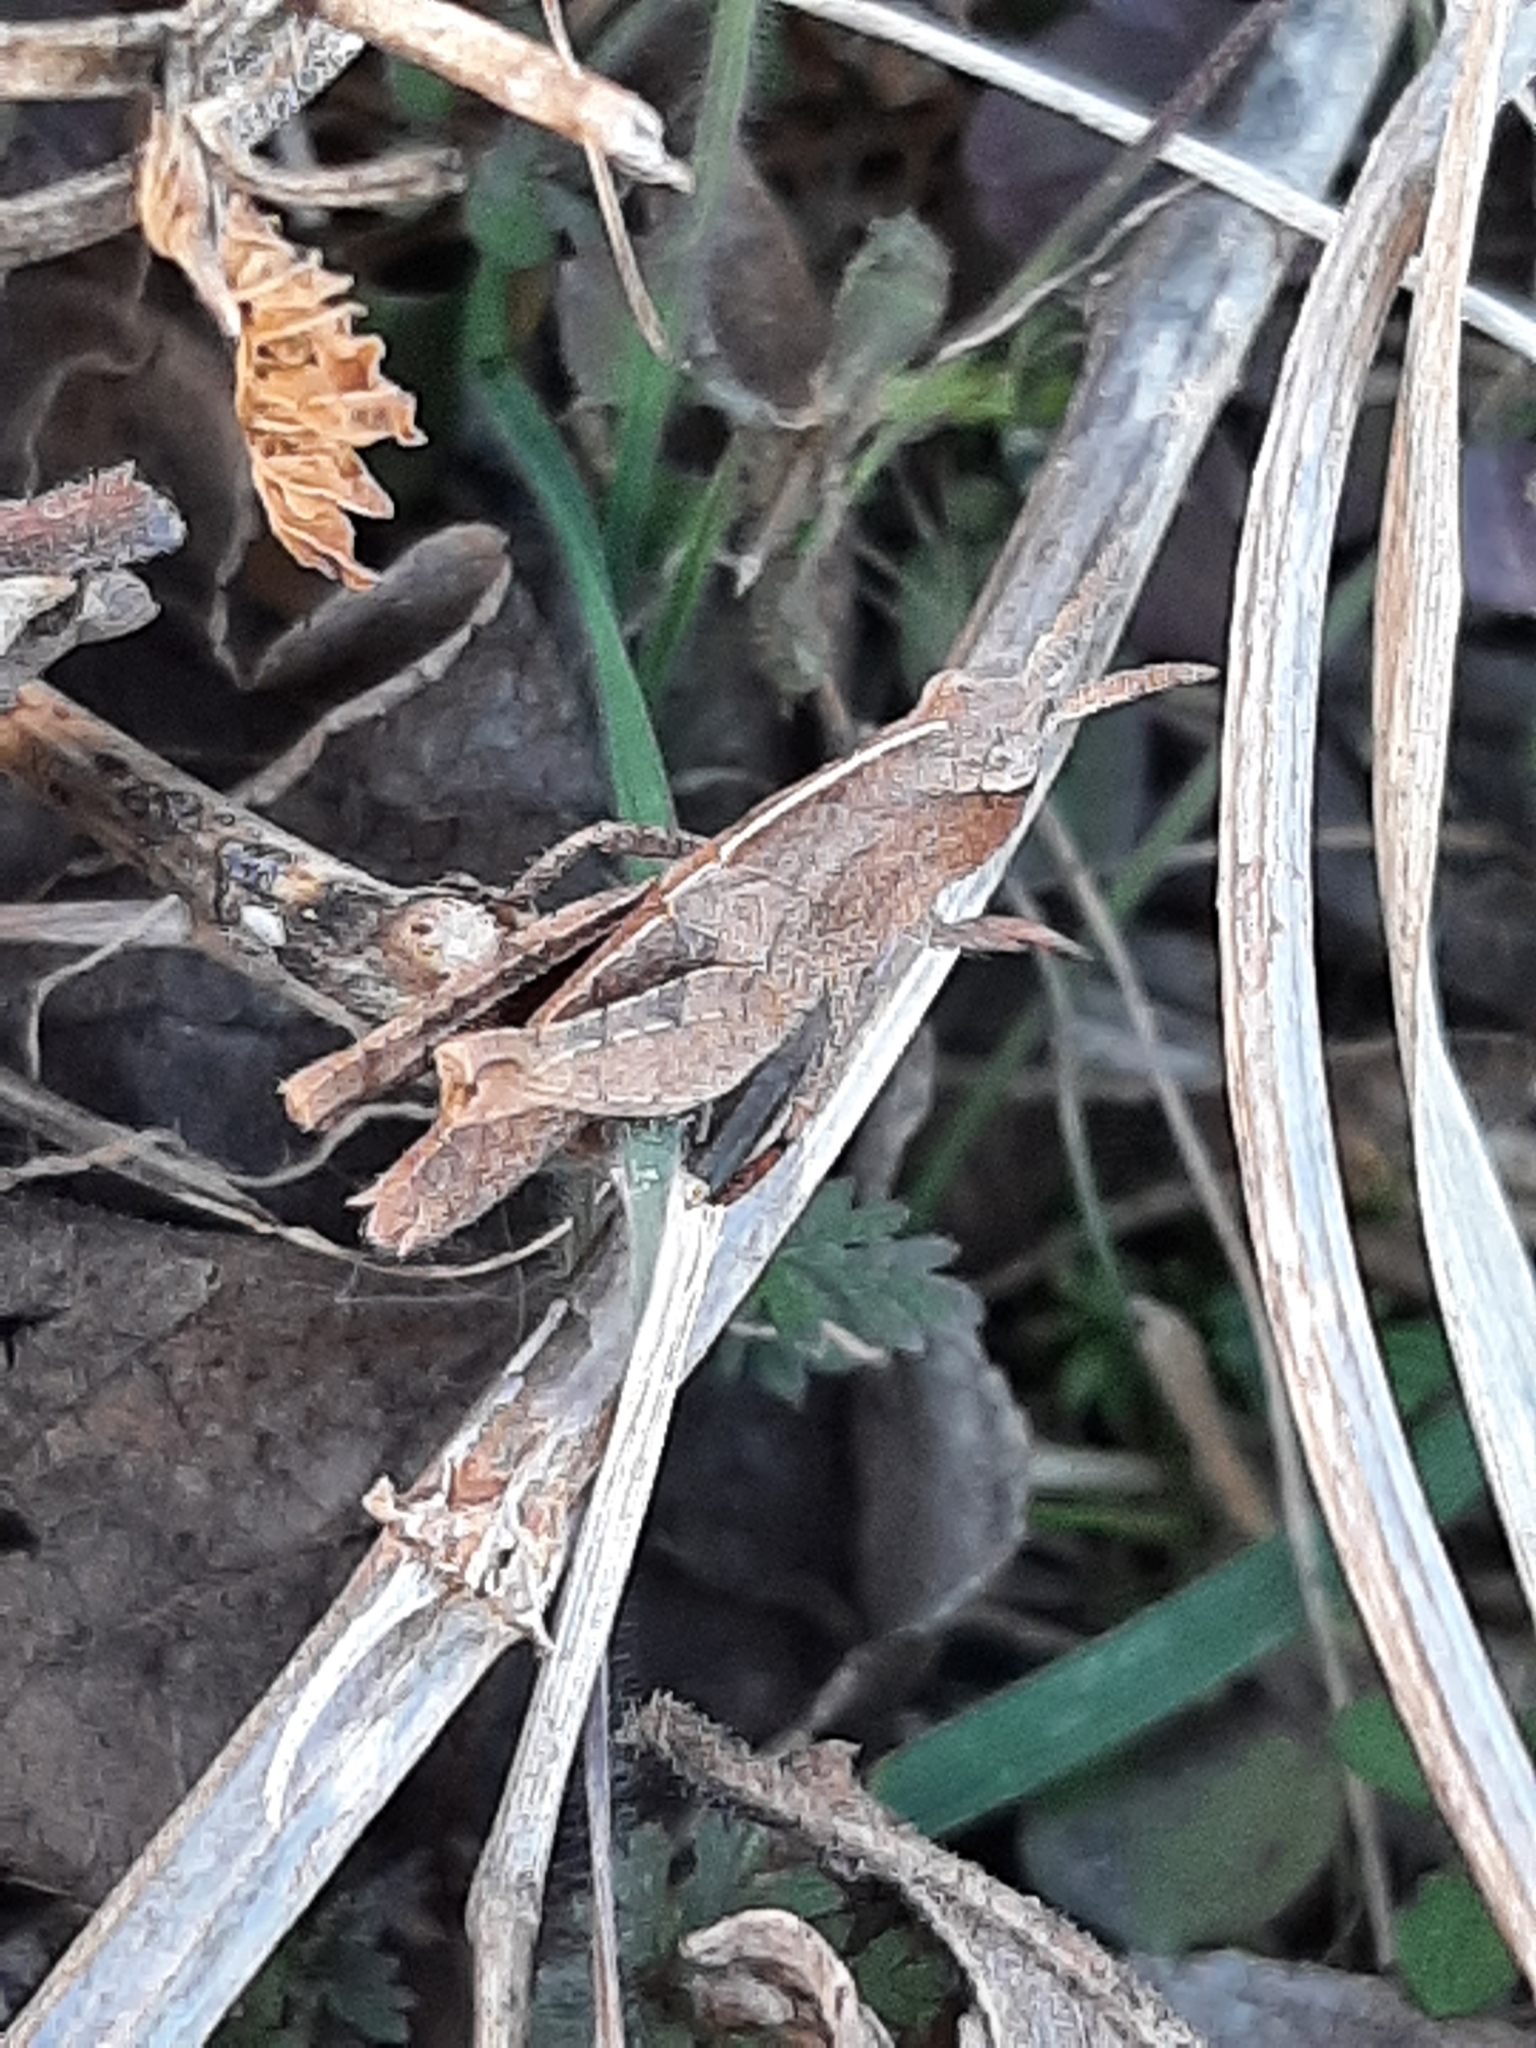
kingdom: Animalia
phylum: Arthropoda
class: Insecta
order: Orthoptera
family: Acrididae
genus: Chortophaga
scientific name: Chortophaga viridifasciata
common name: Green-striped grasshopper
